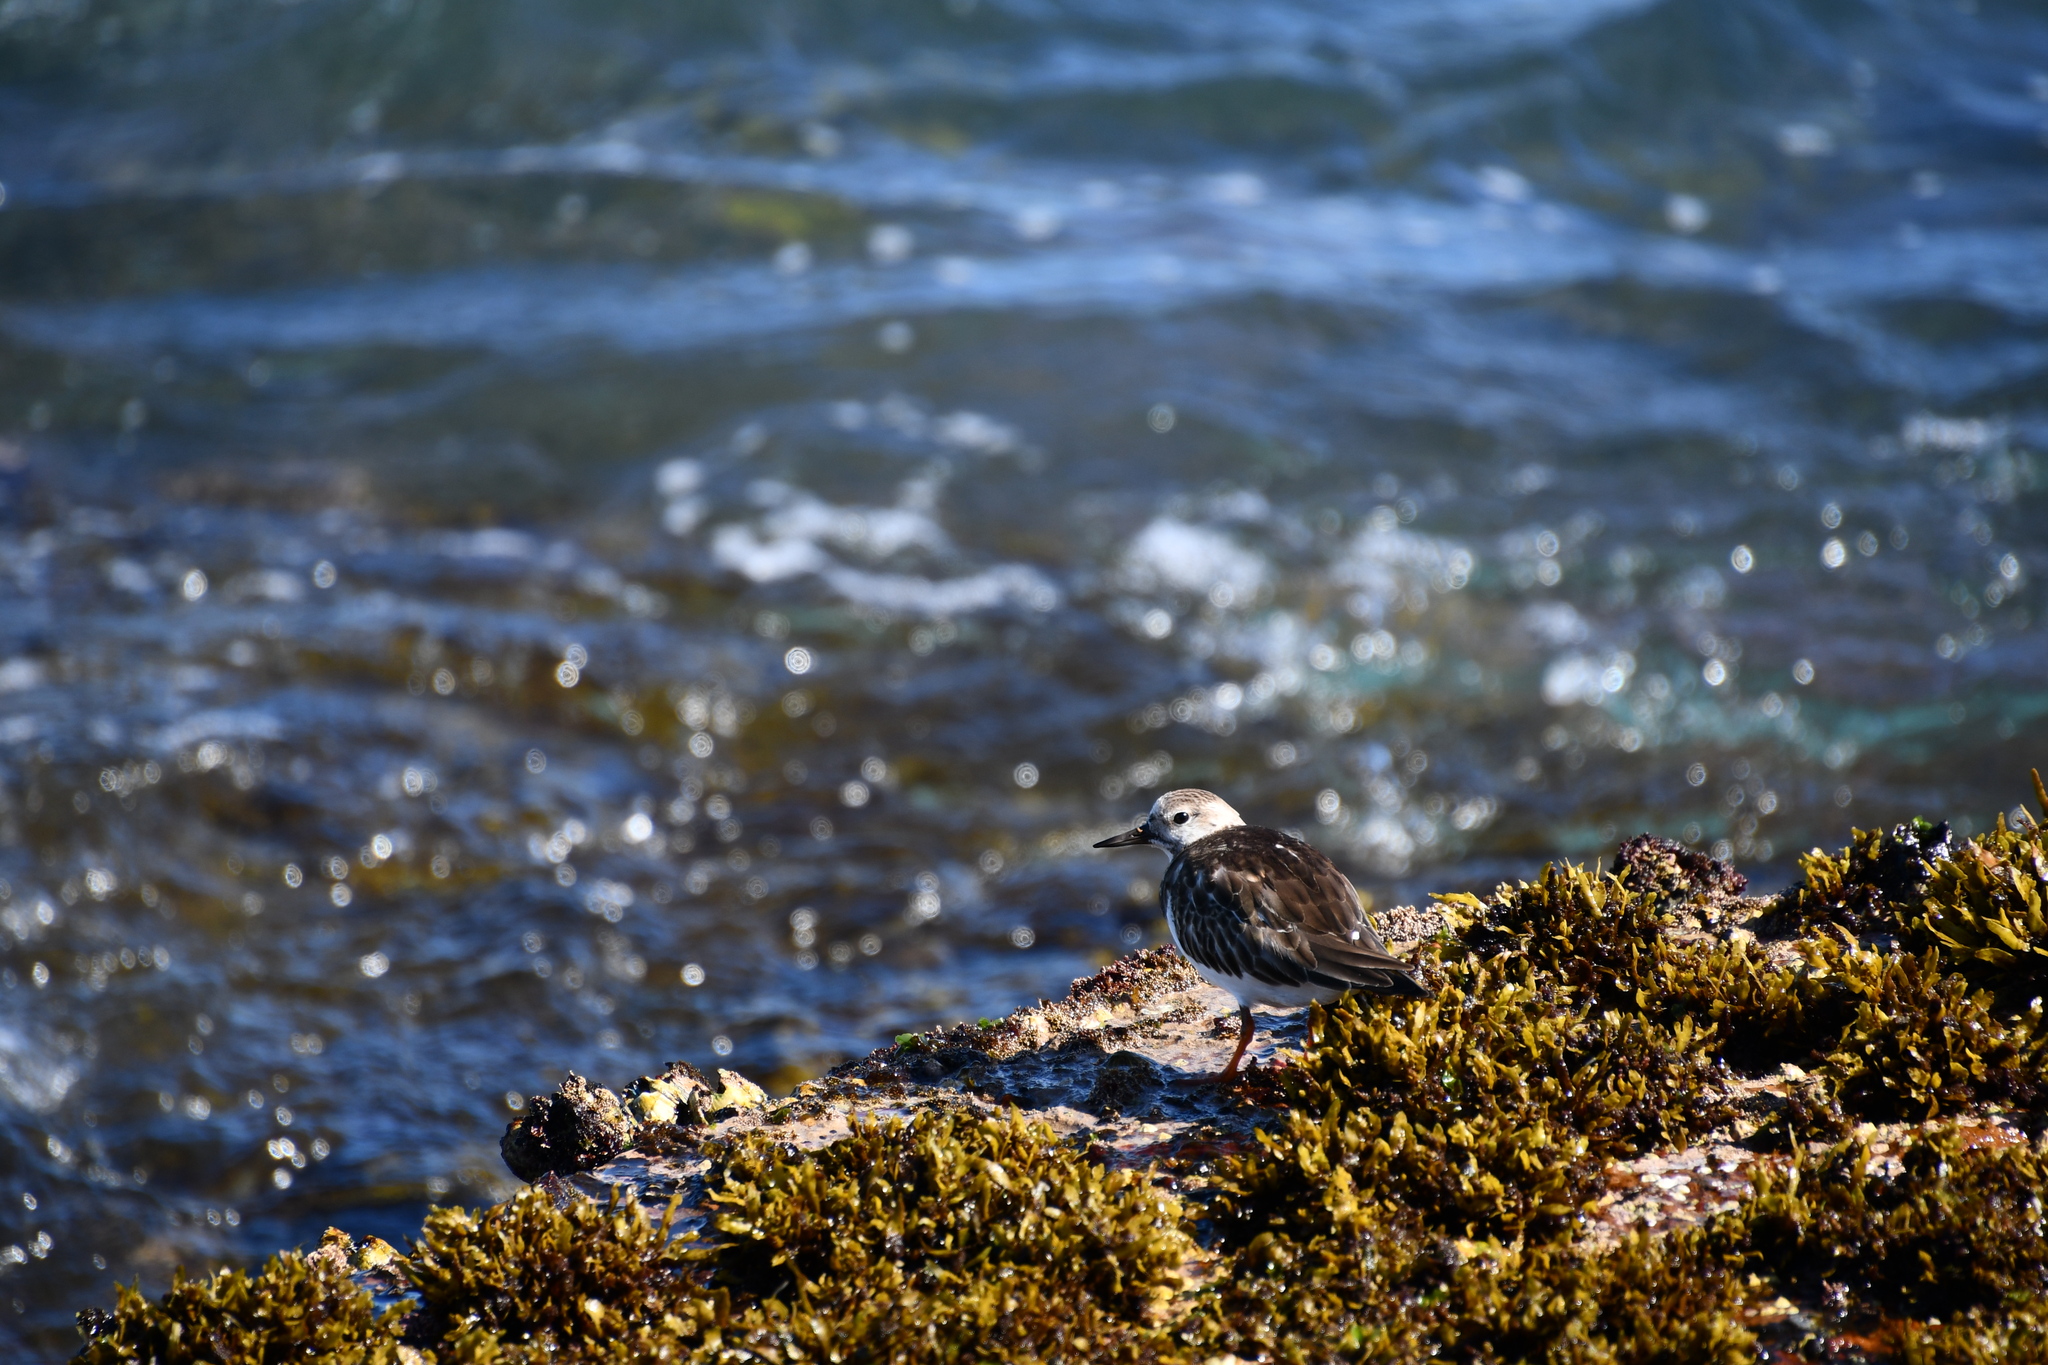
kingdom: Animalia
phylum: Chordata
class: Aves
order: Charadriiformes
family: Scolopacidae
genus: Arenaria
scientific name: Arenaria interpres
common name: Ruddy turnstone
